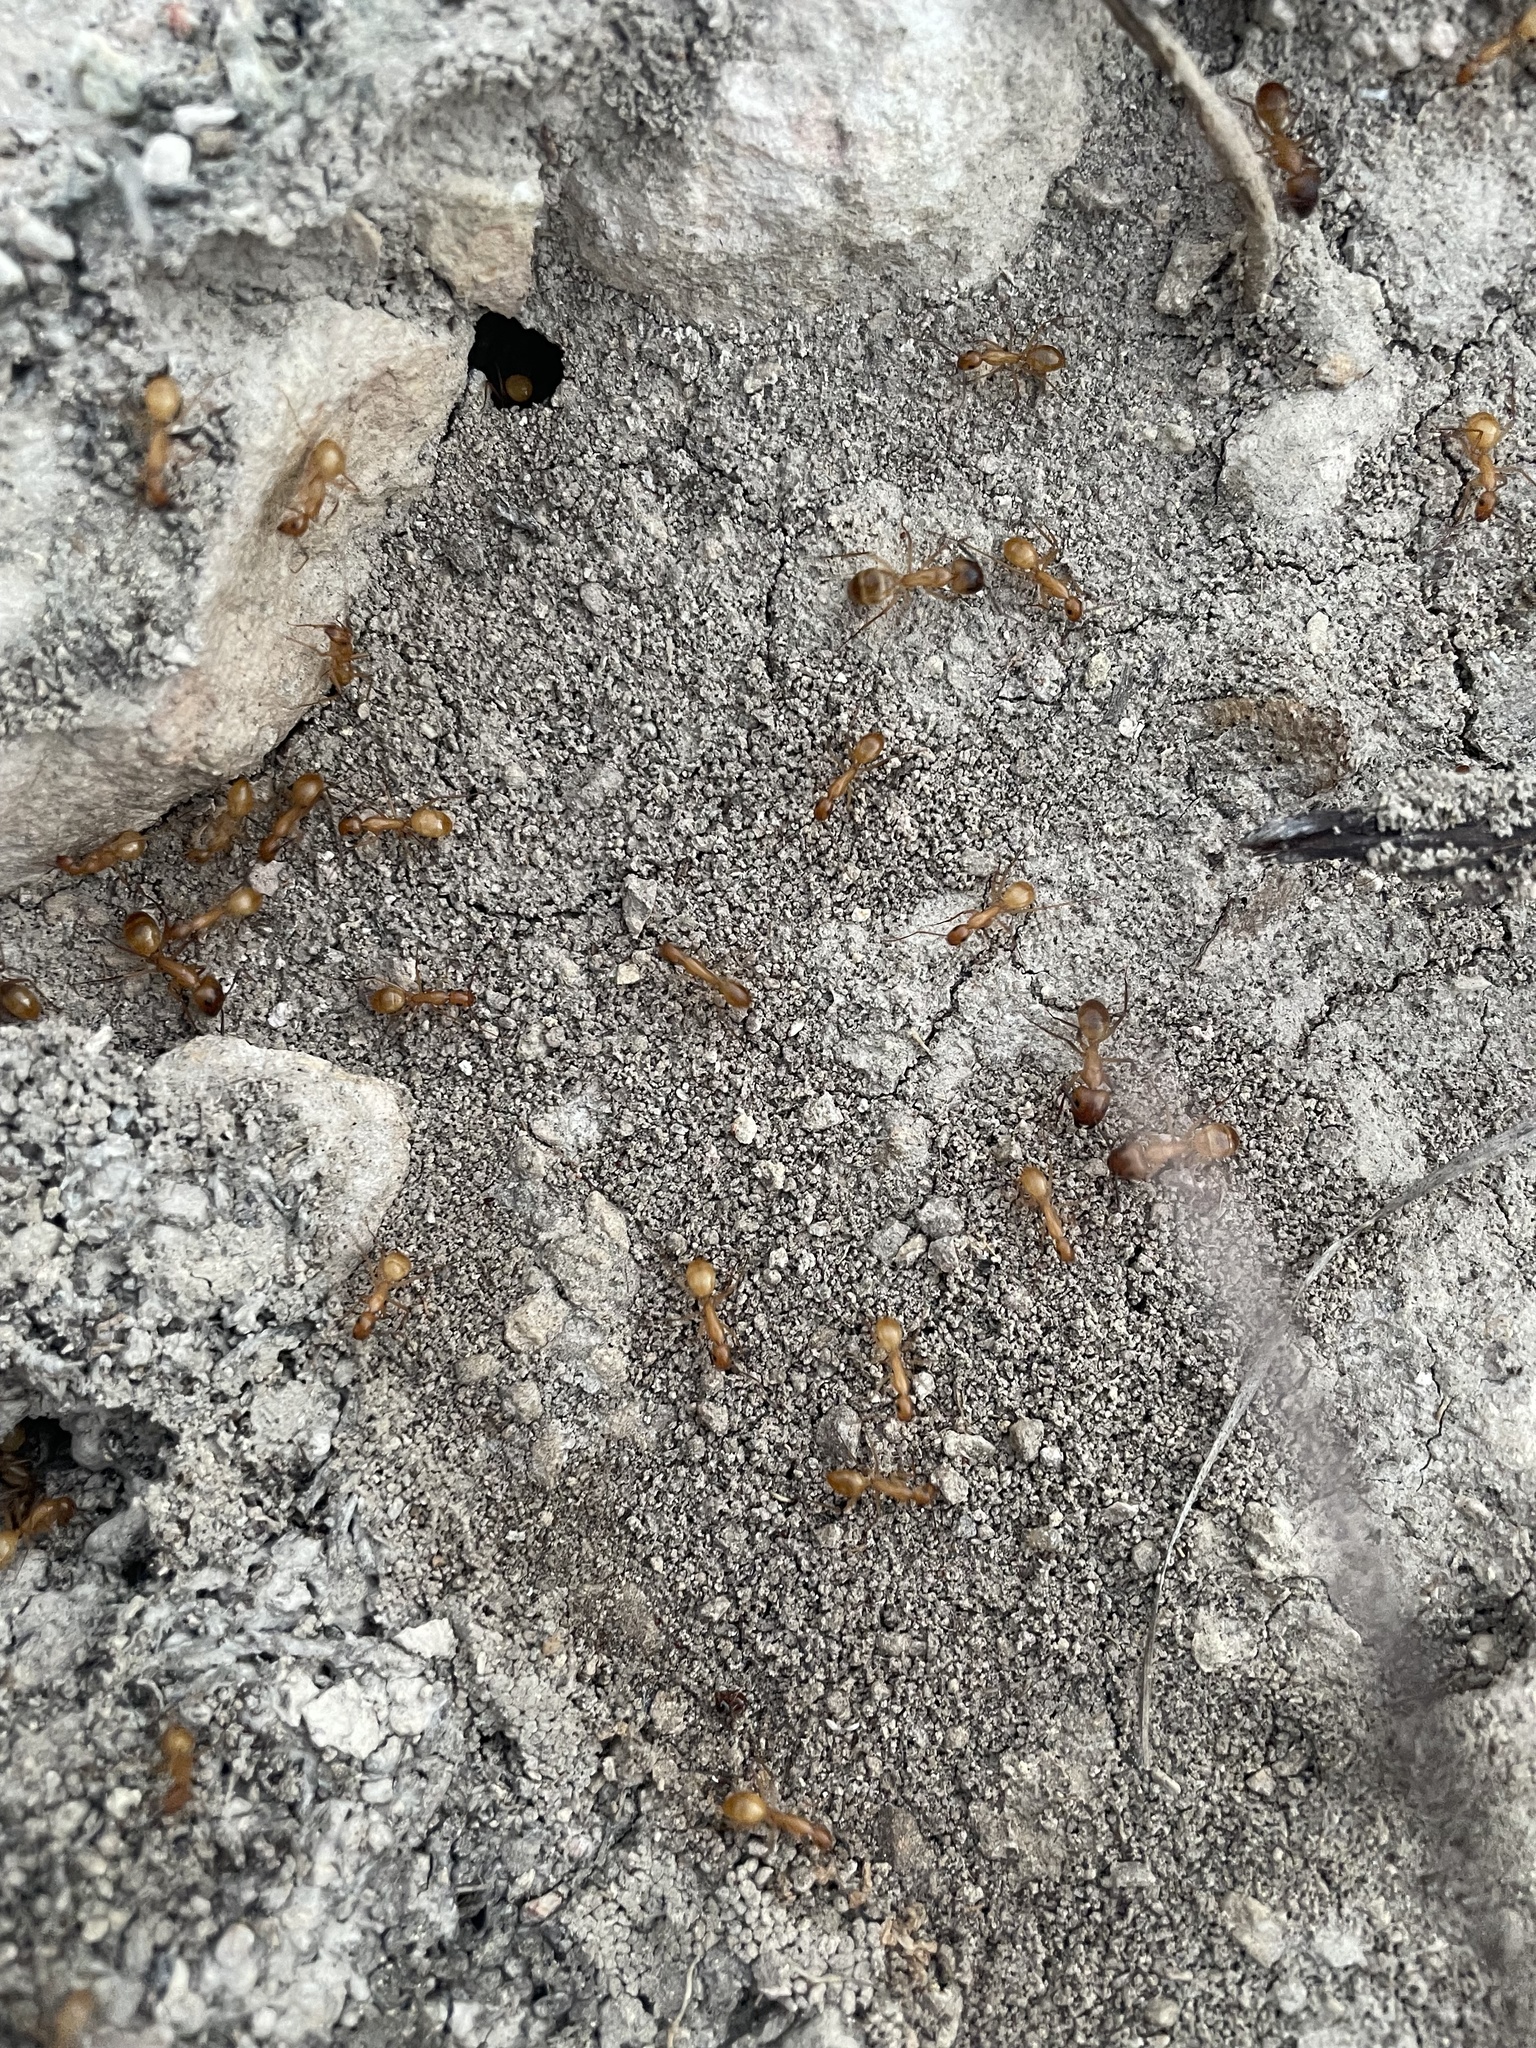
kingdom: Animalia
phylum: Arthropoda
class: Insecta
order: Hymenoptera
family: Formicidae
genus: Camponotus
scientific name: Camponotus festinatus
